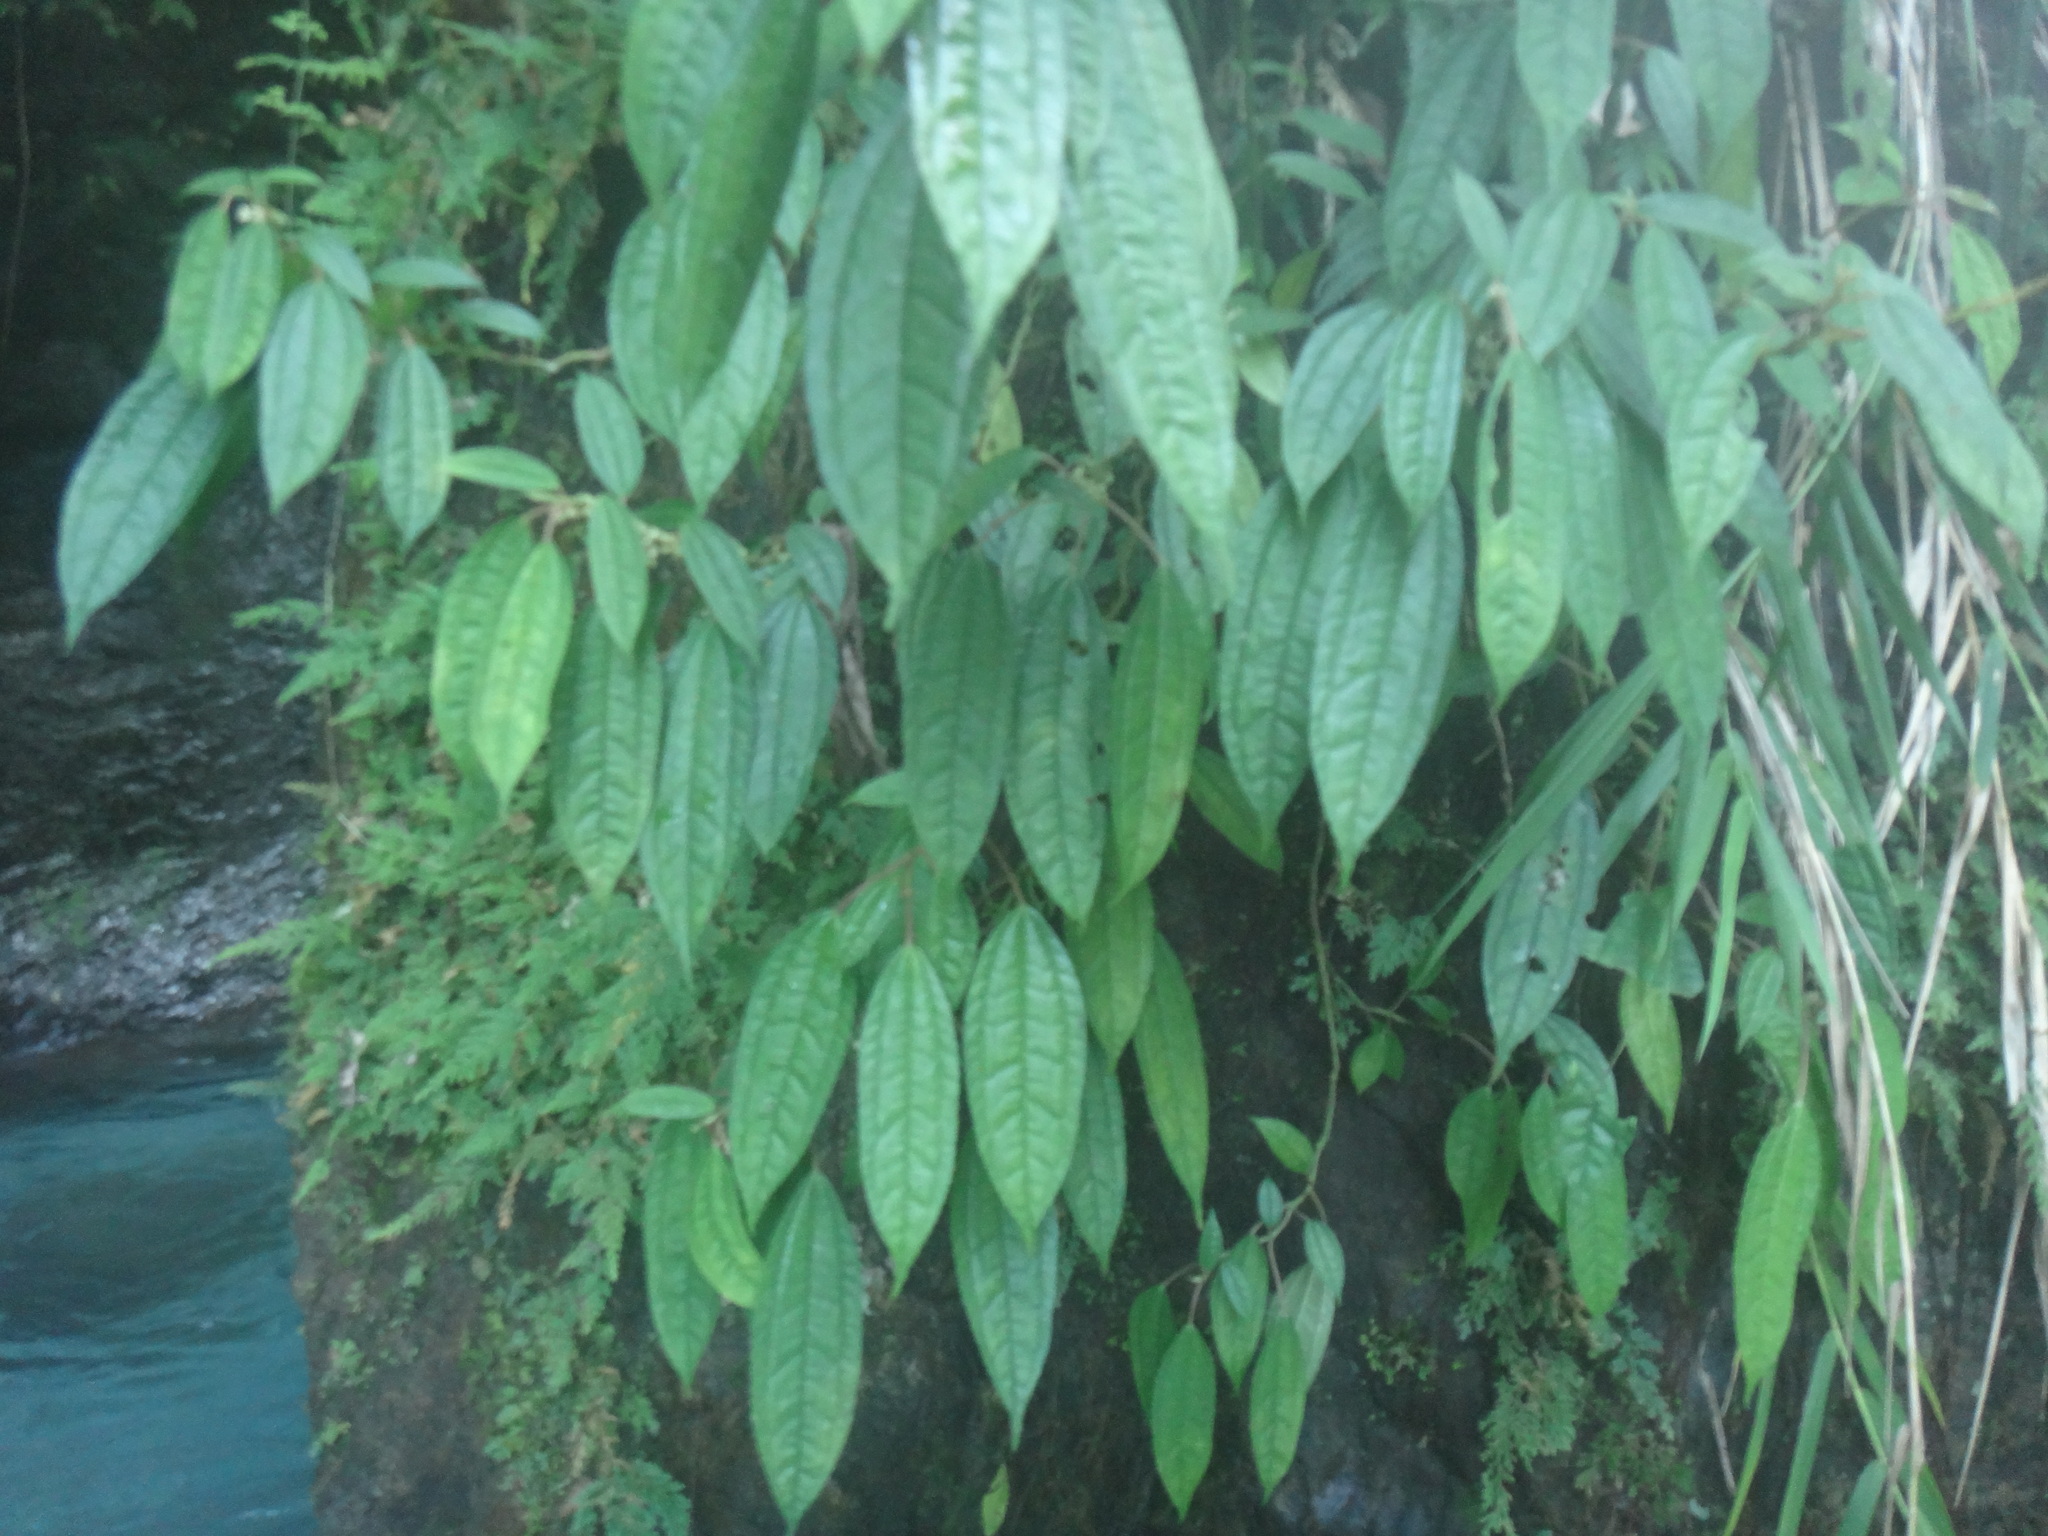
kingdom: Plantae
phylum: Tracheophyta
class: Magnoliopsida
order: Rosales
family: Urticaceae
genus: Pilea
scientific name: Pilea funkikensis
